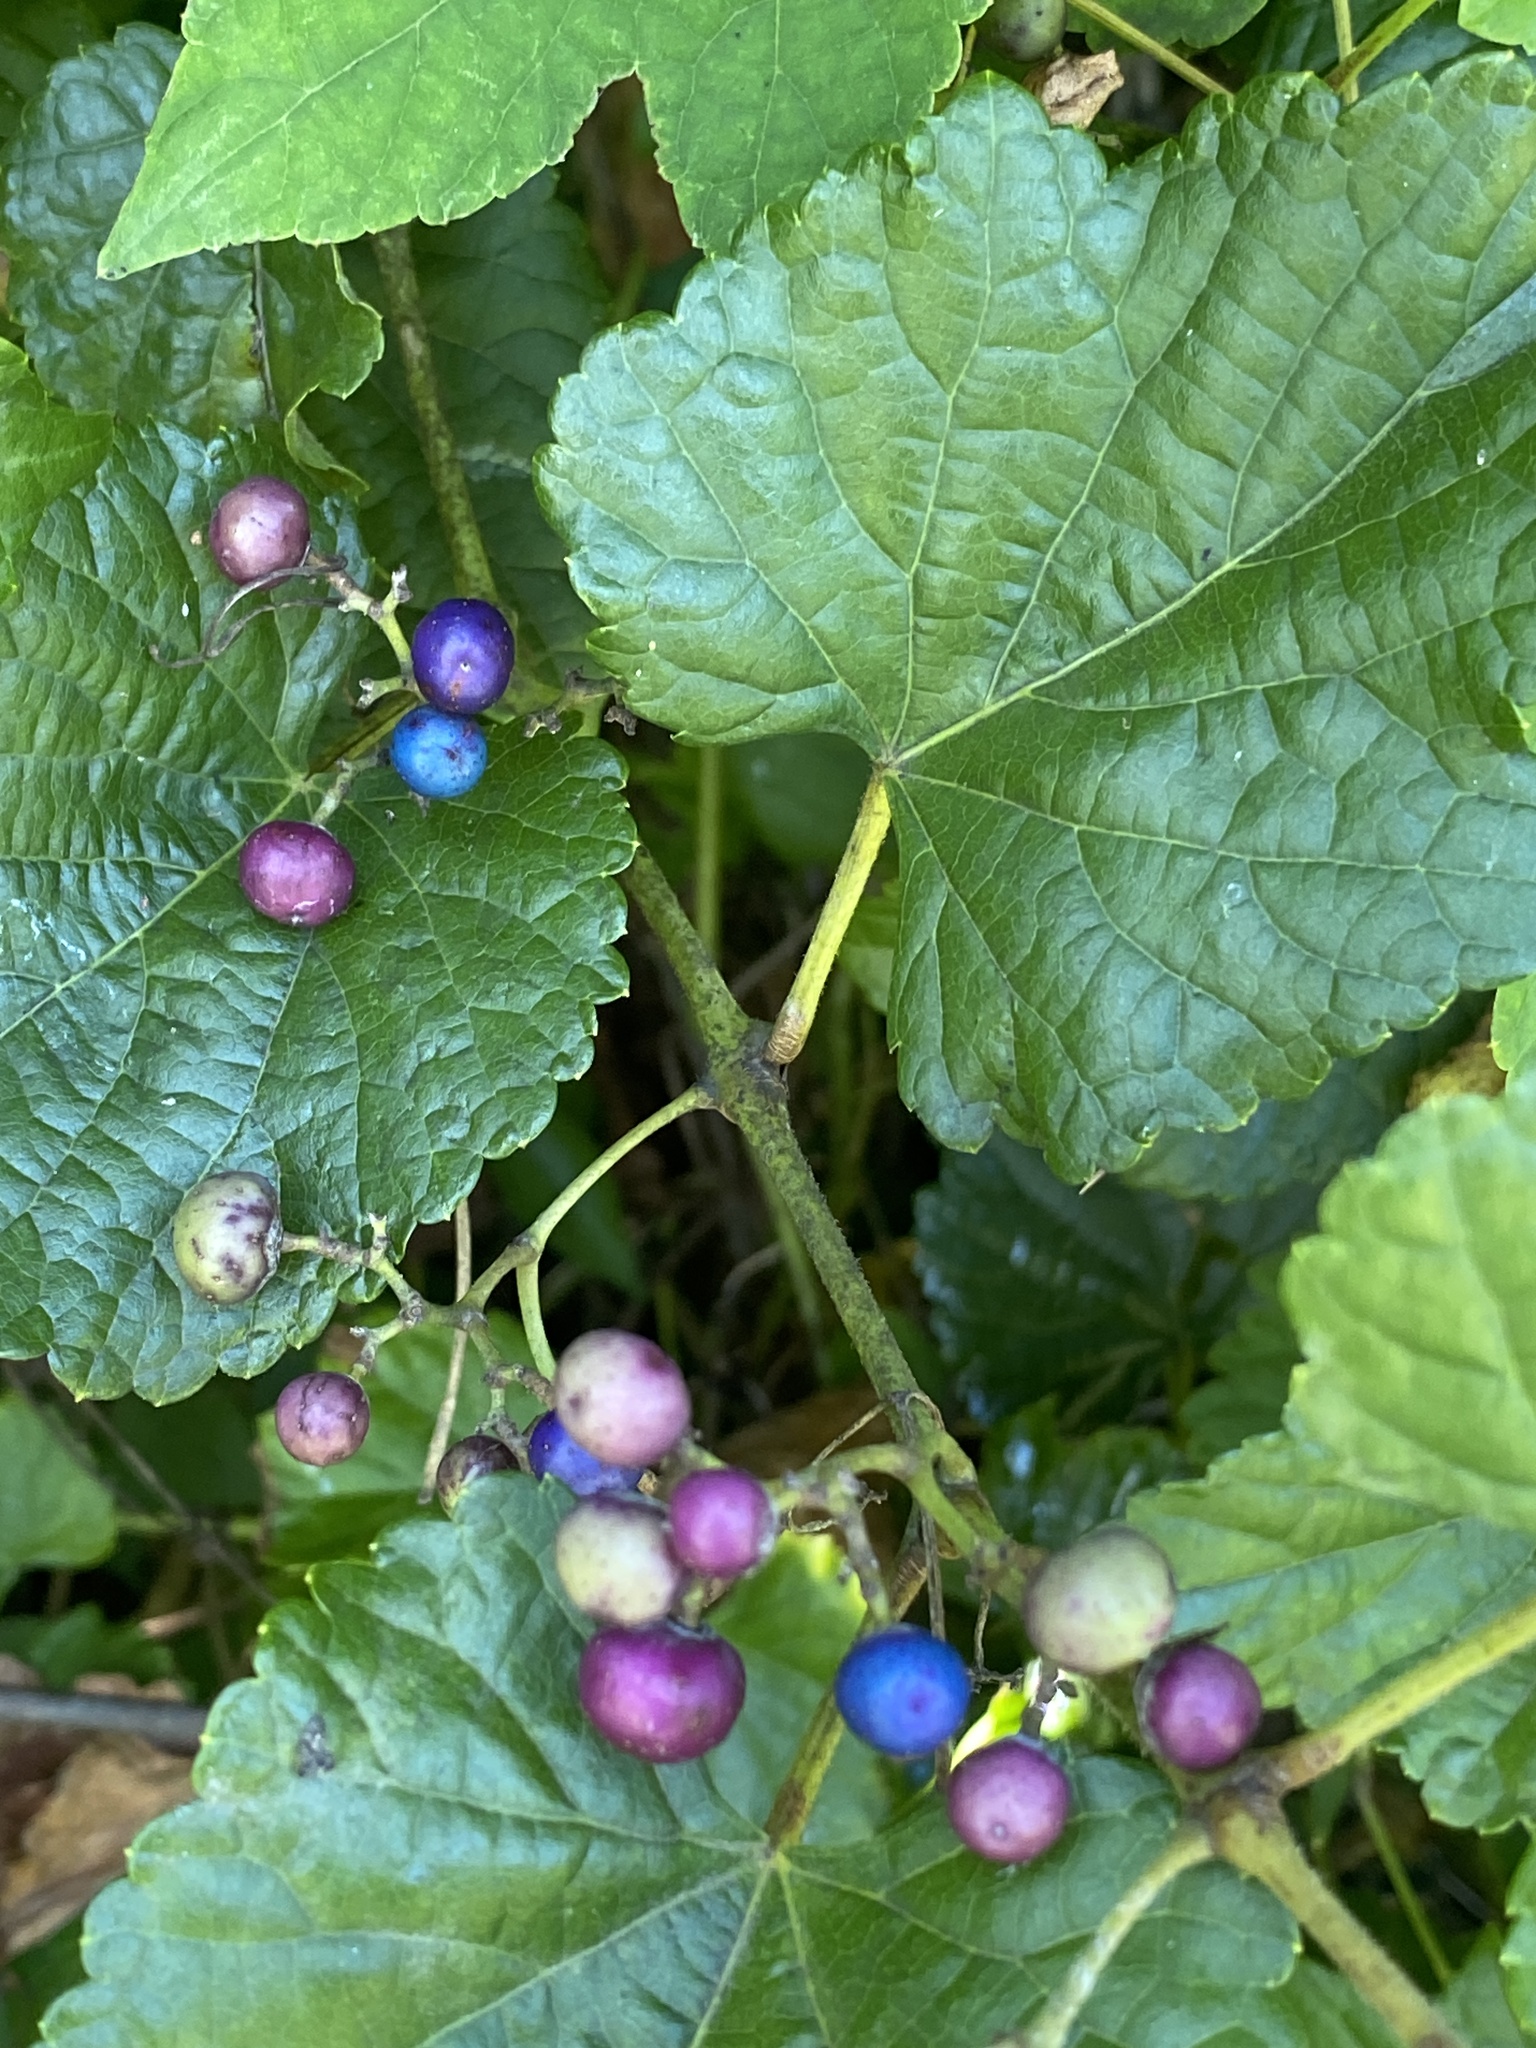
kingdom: Plantae
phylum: Tracheophyta
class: Magnoliopsida
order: Vitales
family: Vitaceae
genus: Ampelopsis
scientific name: Ampelopsis glandulosa
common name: Amur peppervine
